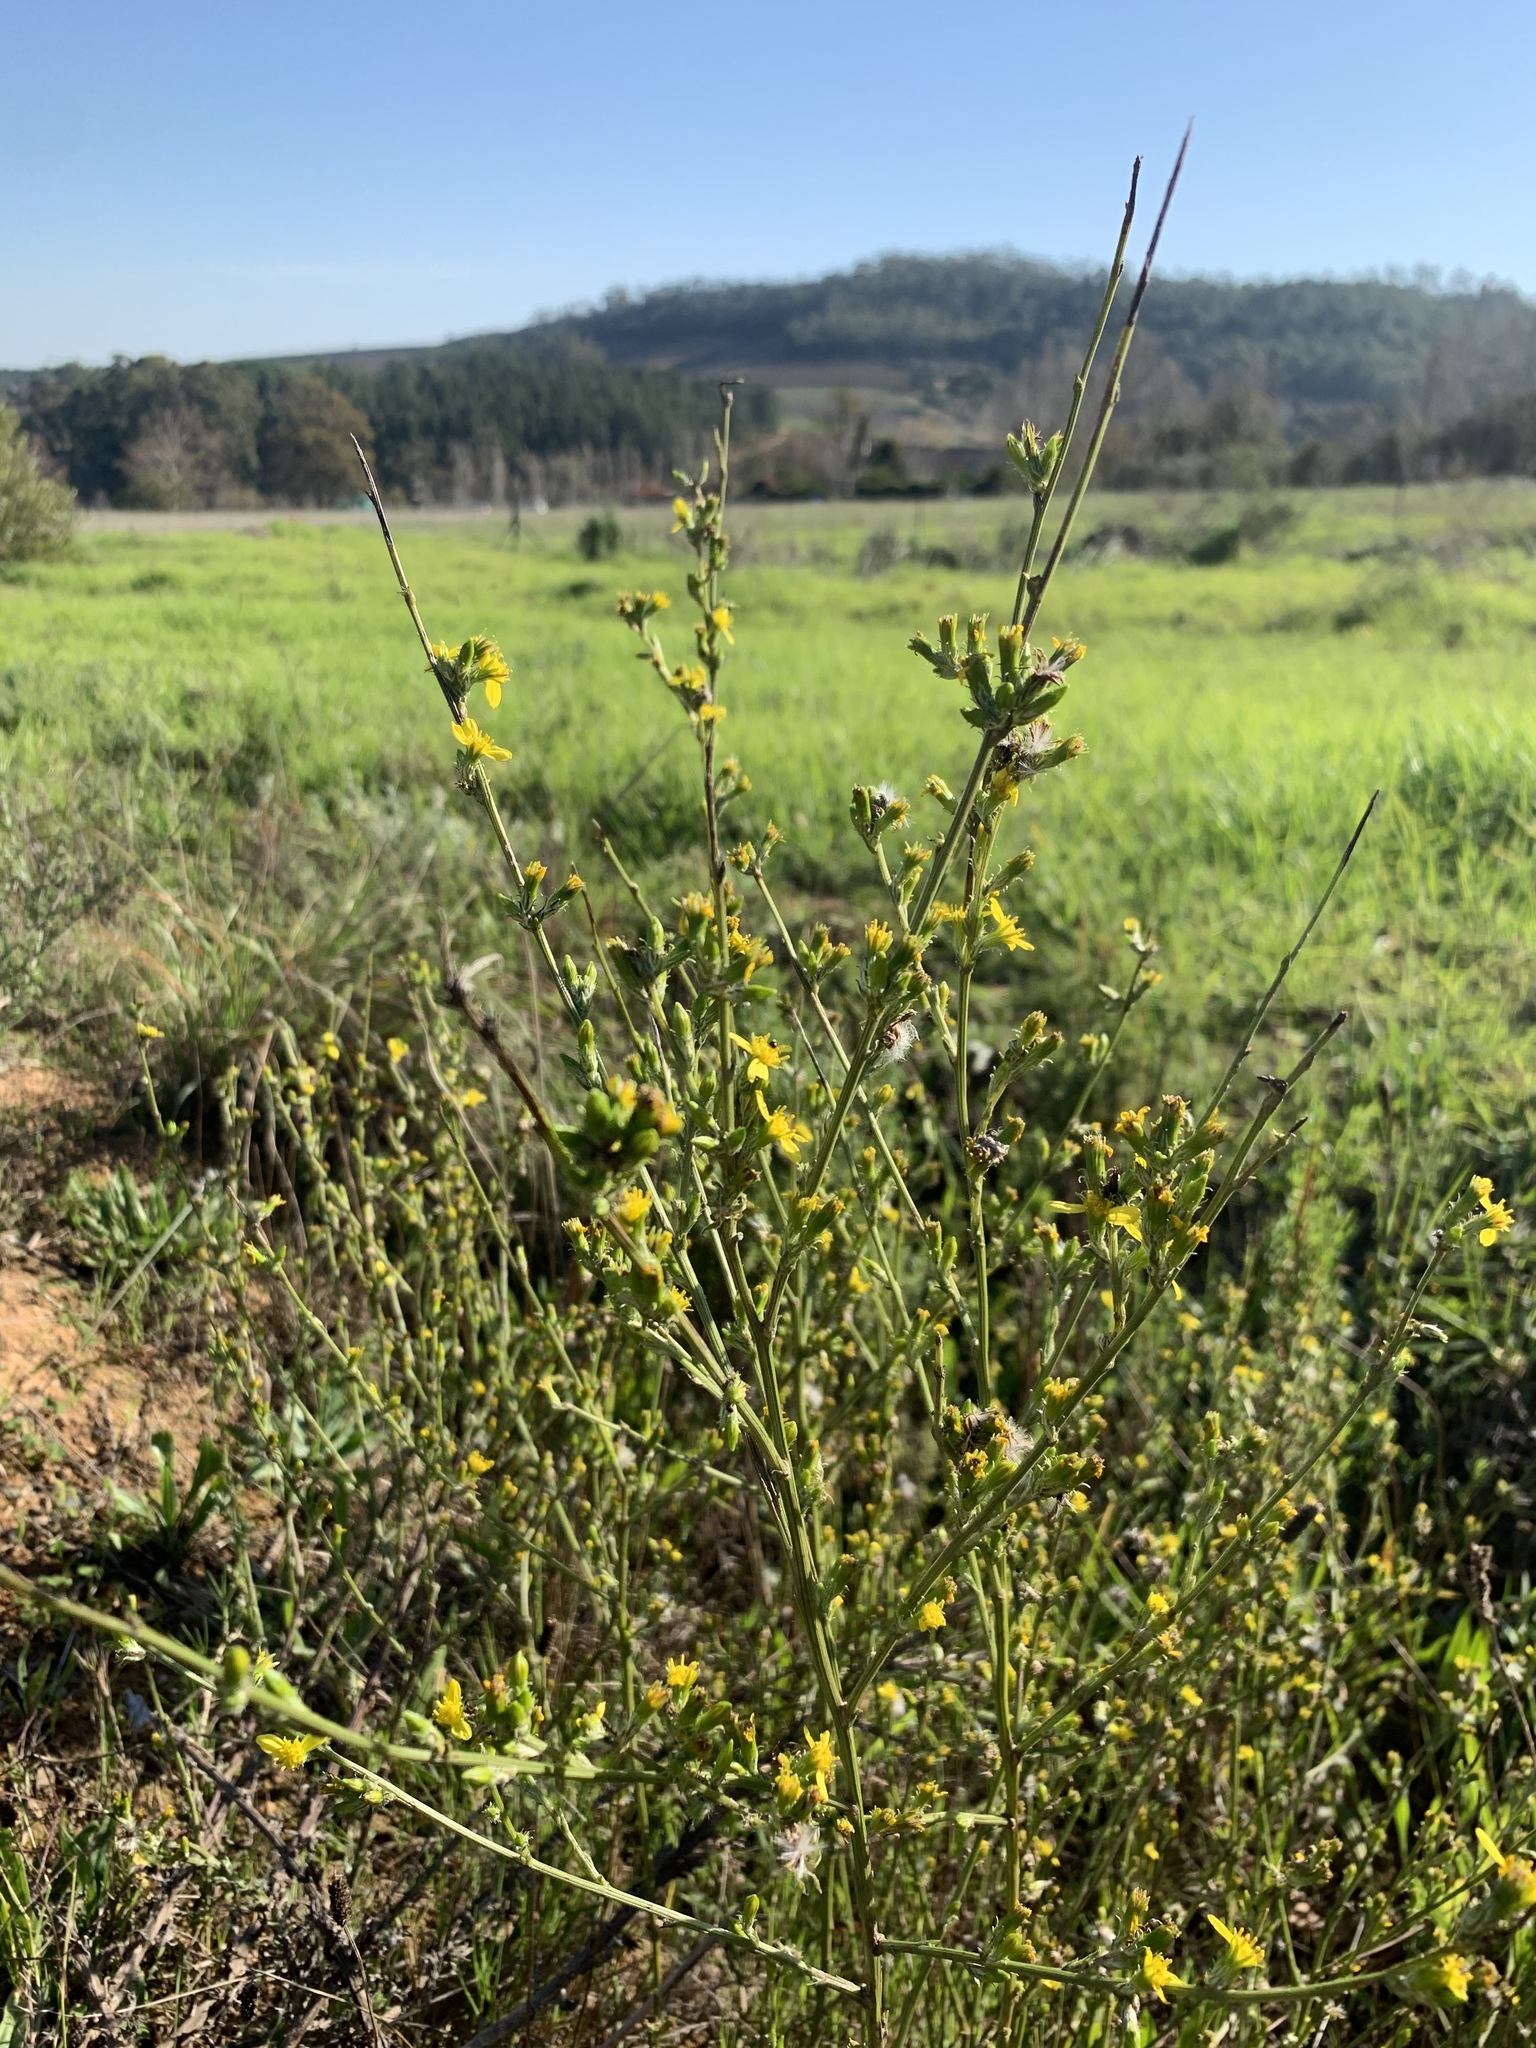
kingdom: Plantae
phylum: Tracheophyta
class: Magnoliopsida
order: Asterales
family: Asteraceae
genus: Senecio
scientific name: Senecio pubigerus
